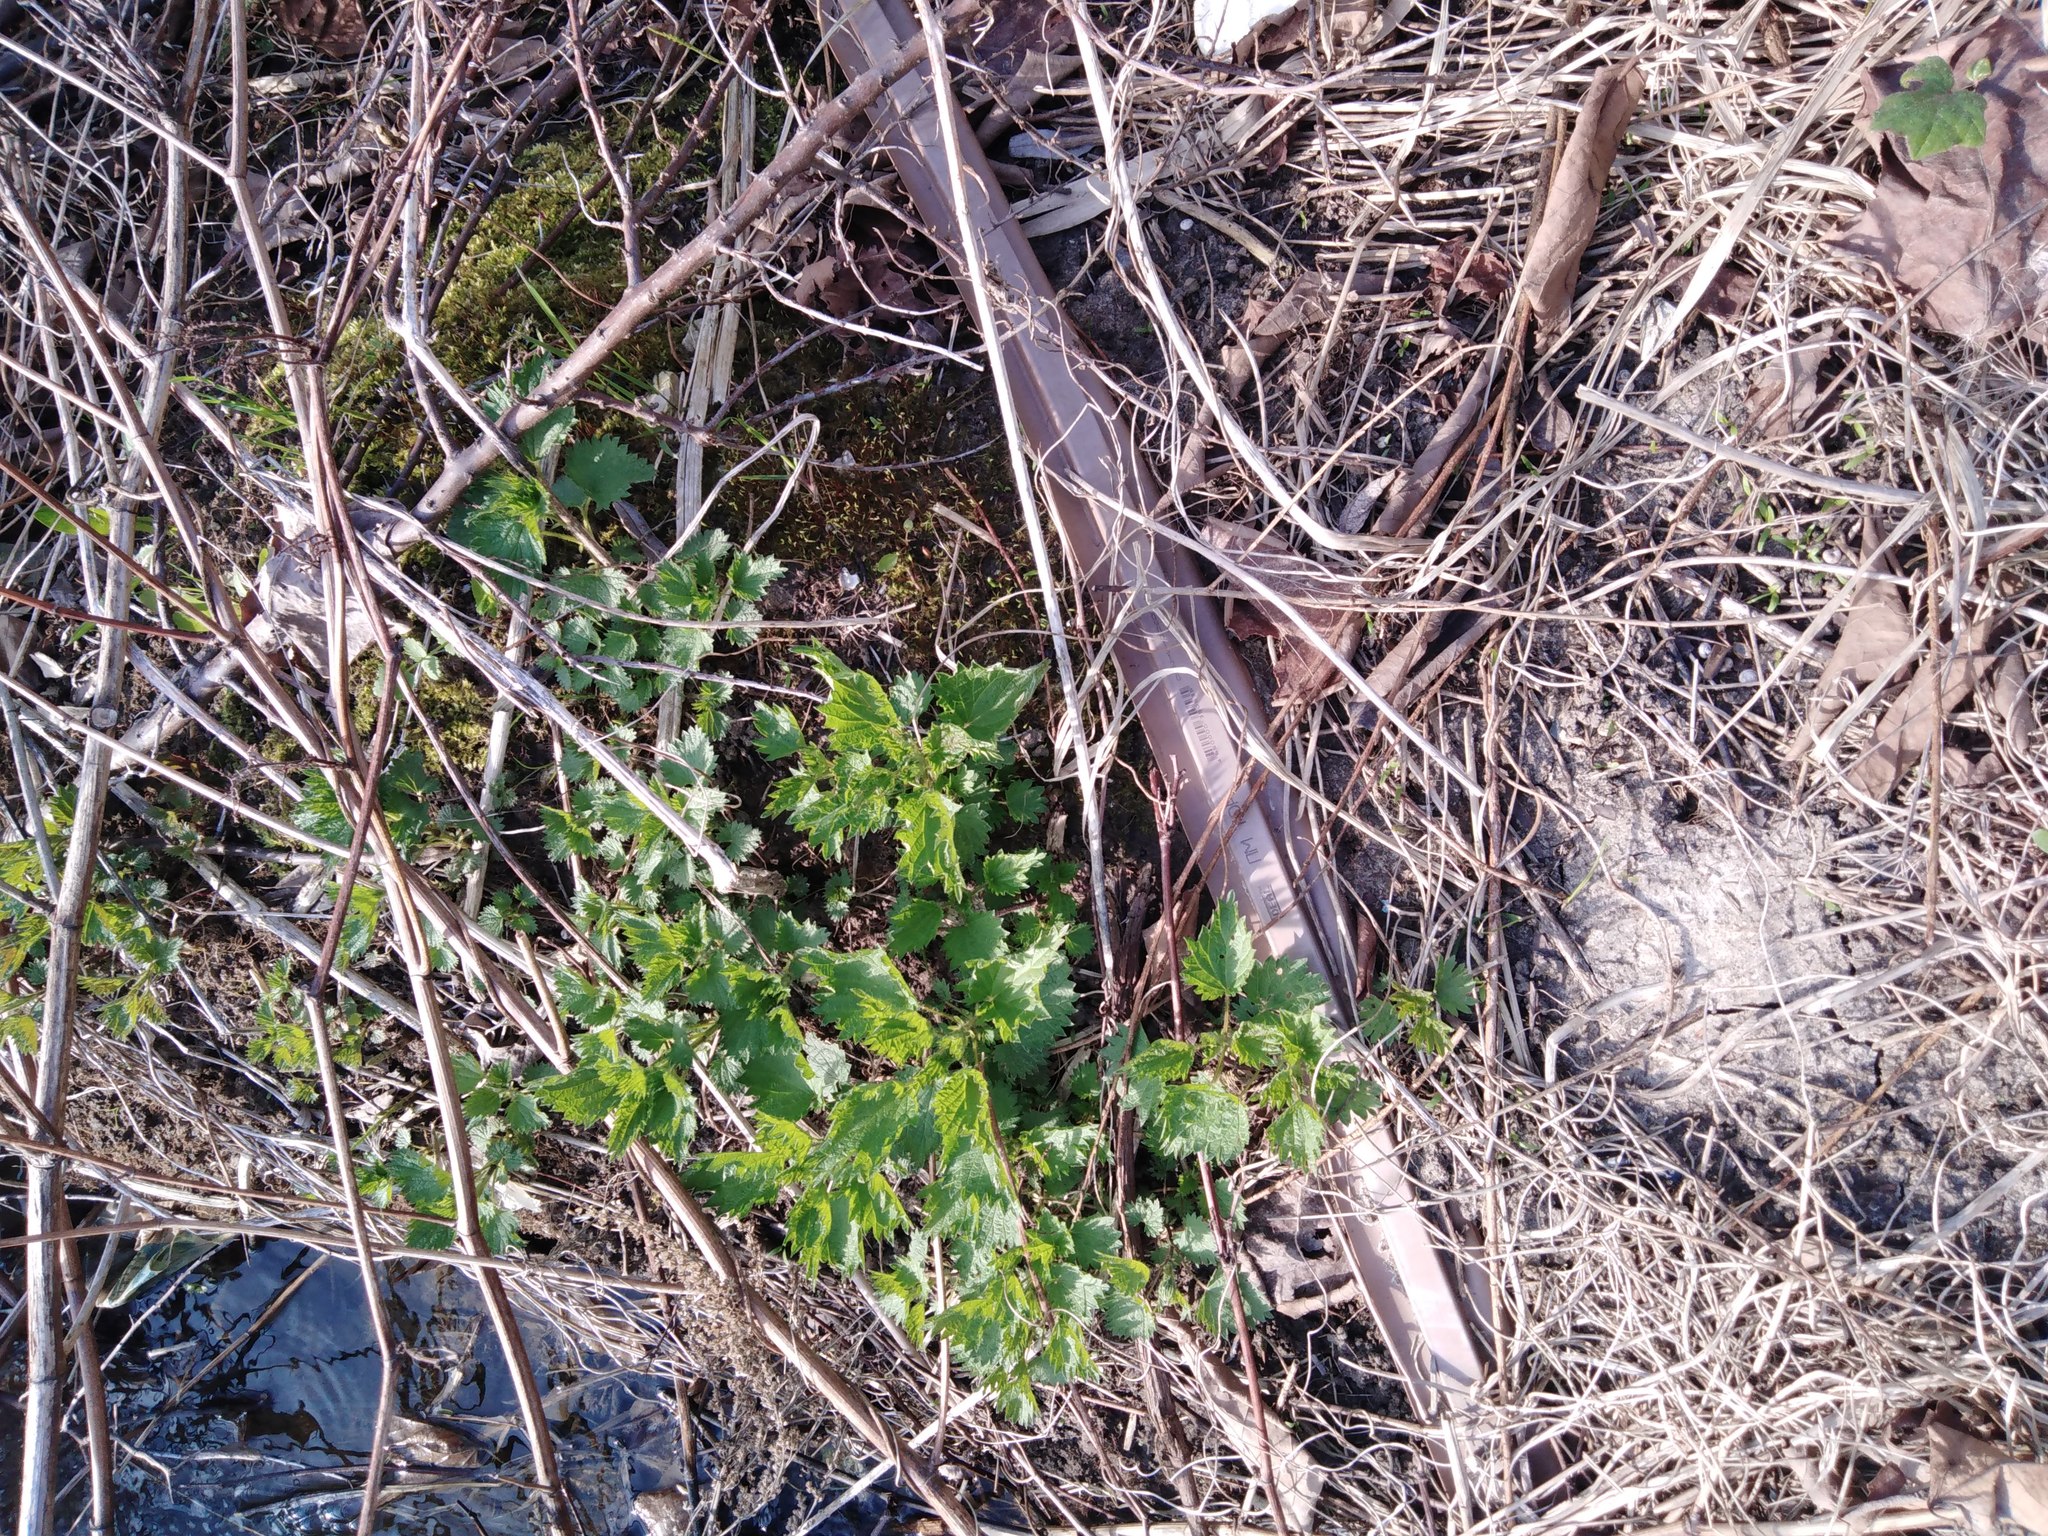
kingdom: Plantae
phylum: Tracheophyta
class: Magnoliopsida
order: Rosales
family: Urticaceae
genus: Urtica
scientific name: Urtica dioica
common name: Common nettle
